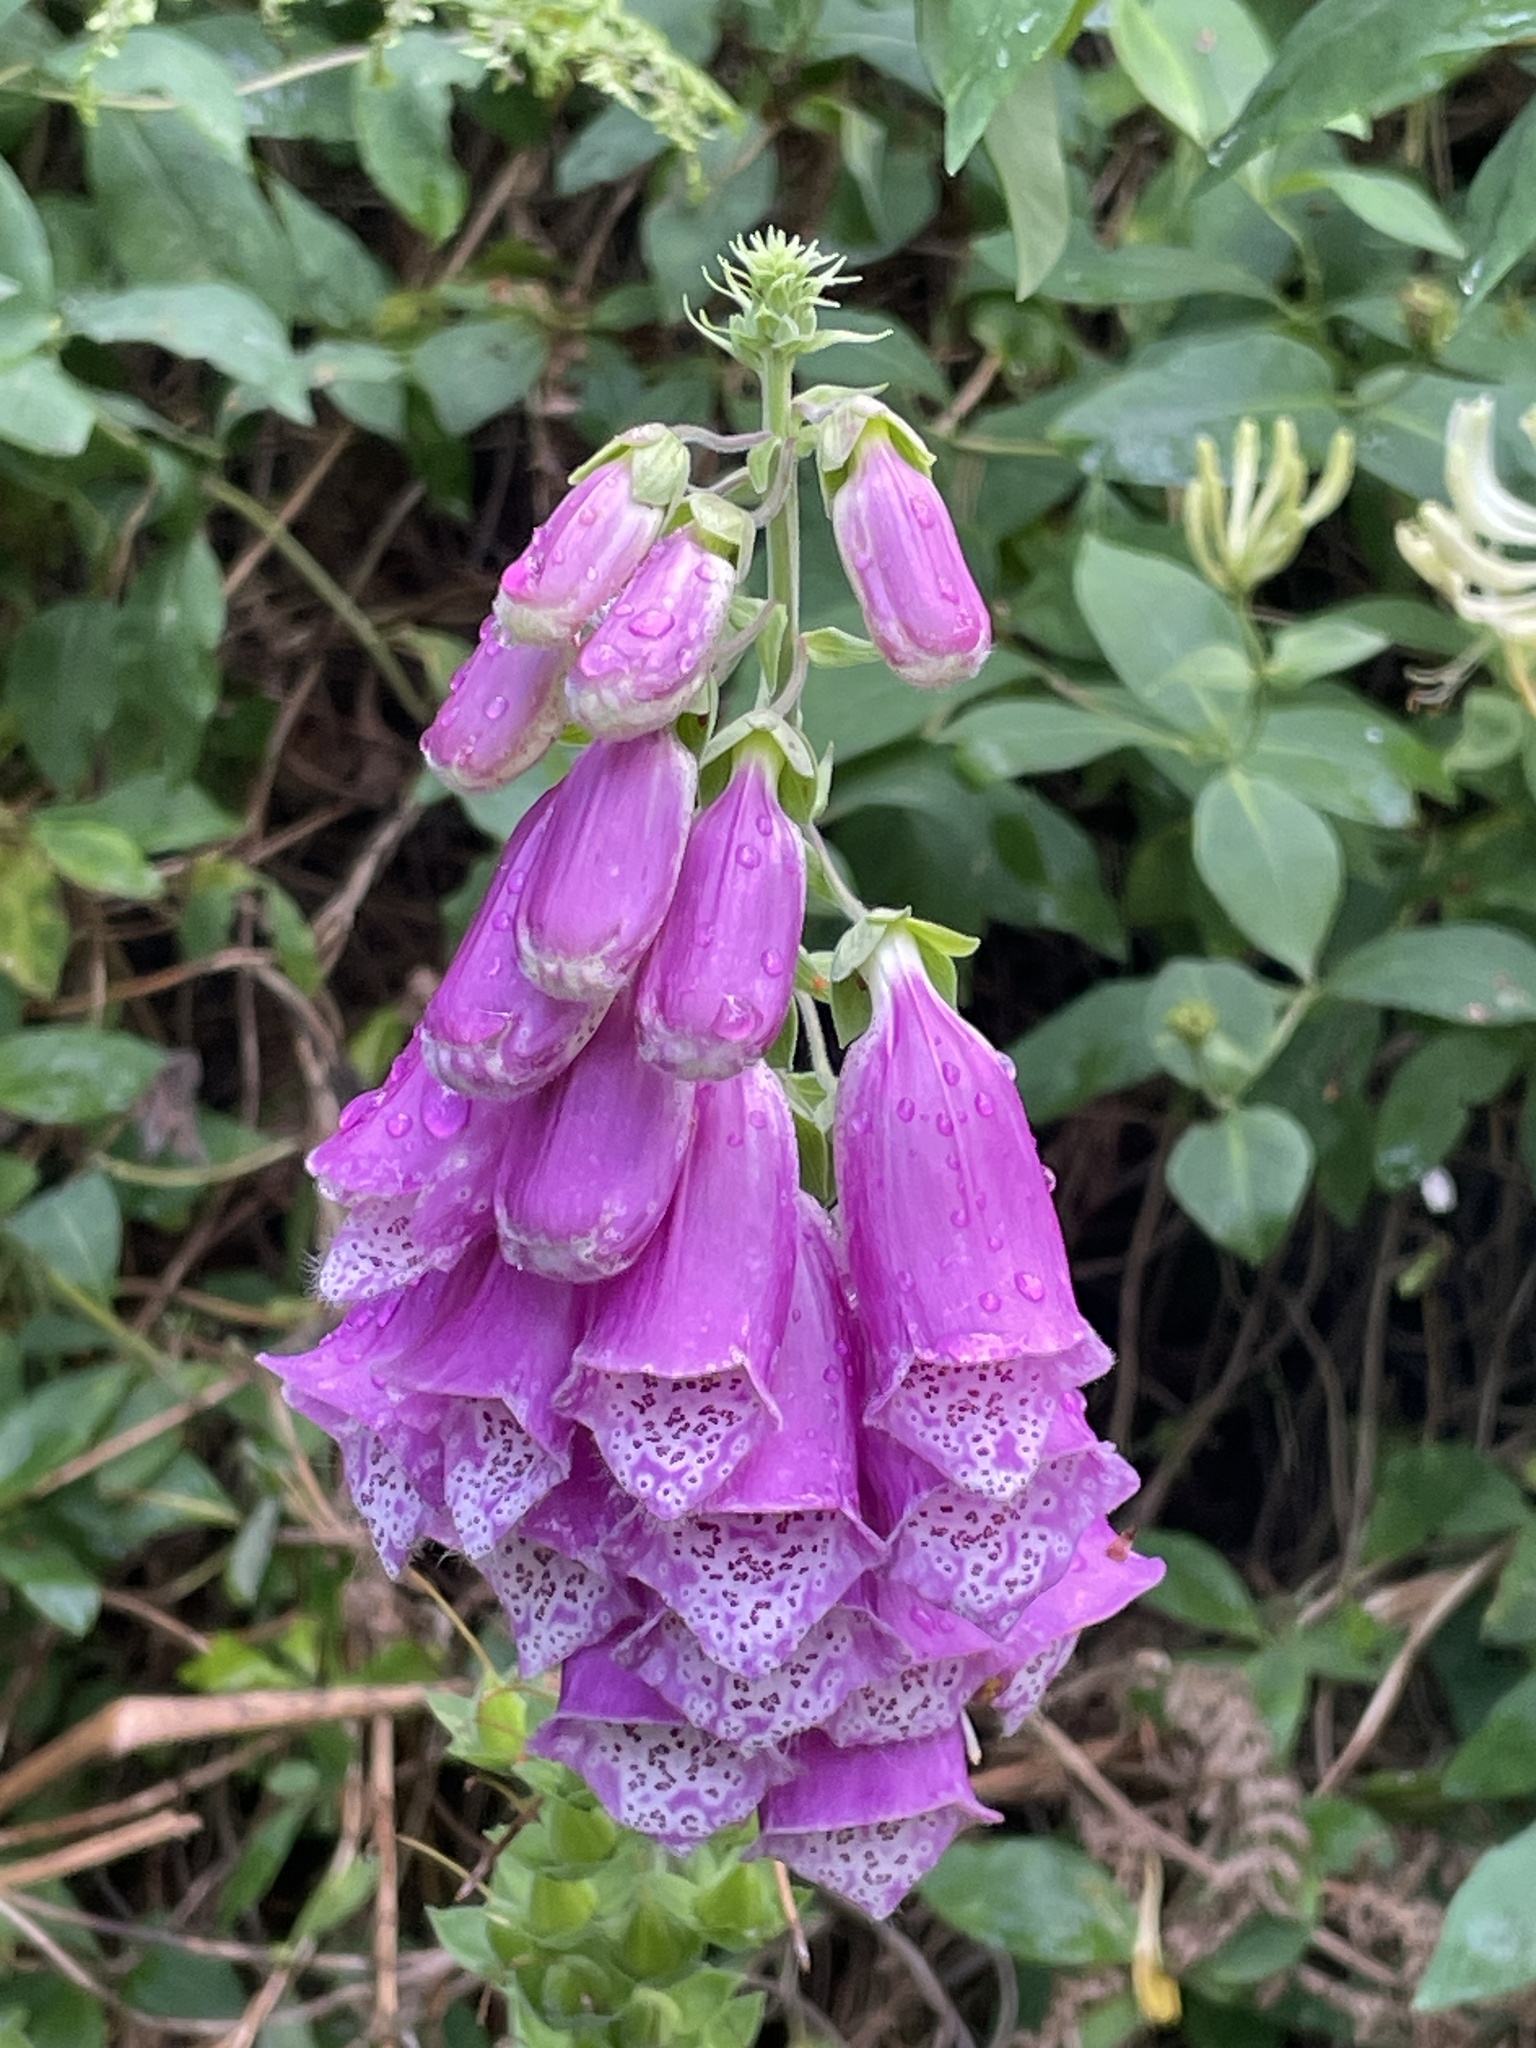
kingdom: Plantae
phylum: Tracheophyta
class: Magnoliopsida
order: Lamiales
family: Plantaginaceae
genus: Digitalis
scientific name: Digitalis purpurea
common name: Foxglove
